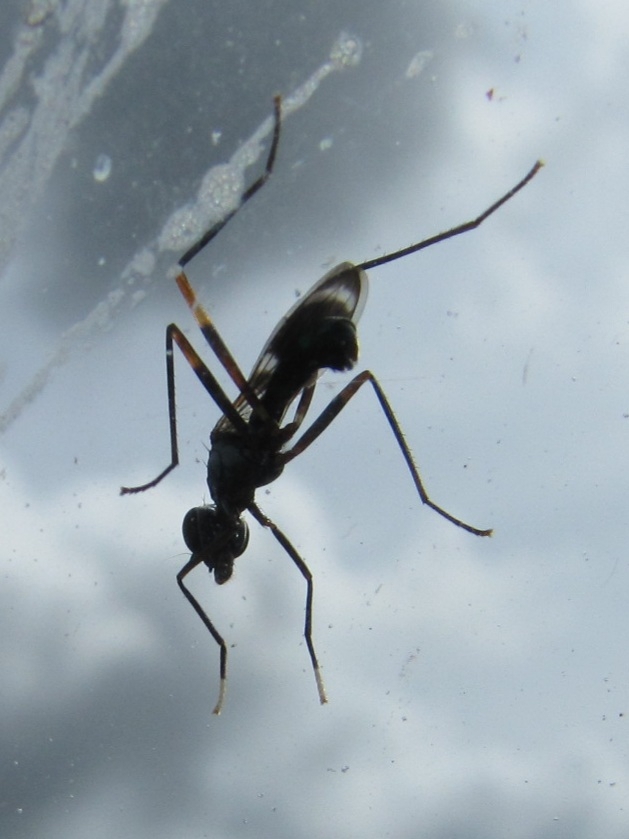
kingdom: Animalia
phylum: Arthropoda
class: Insecta
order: Diptera
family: Micropezidae
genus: Taeniaptera
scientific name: Taeniaptera trivittata
